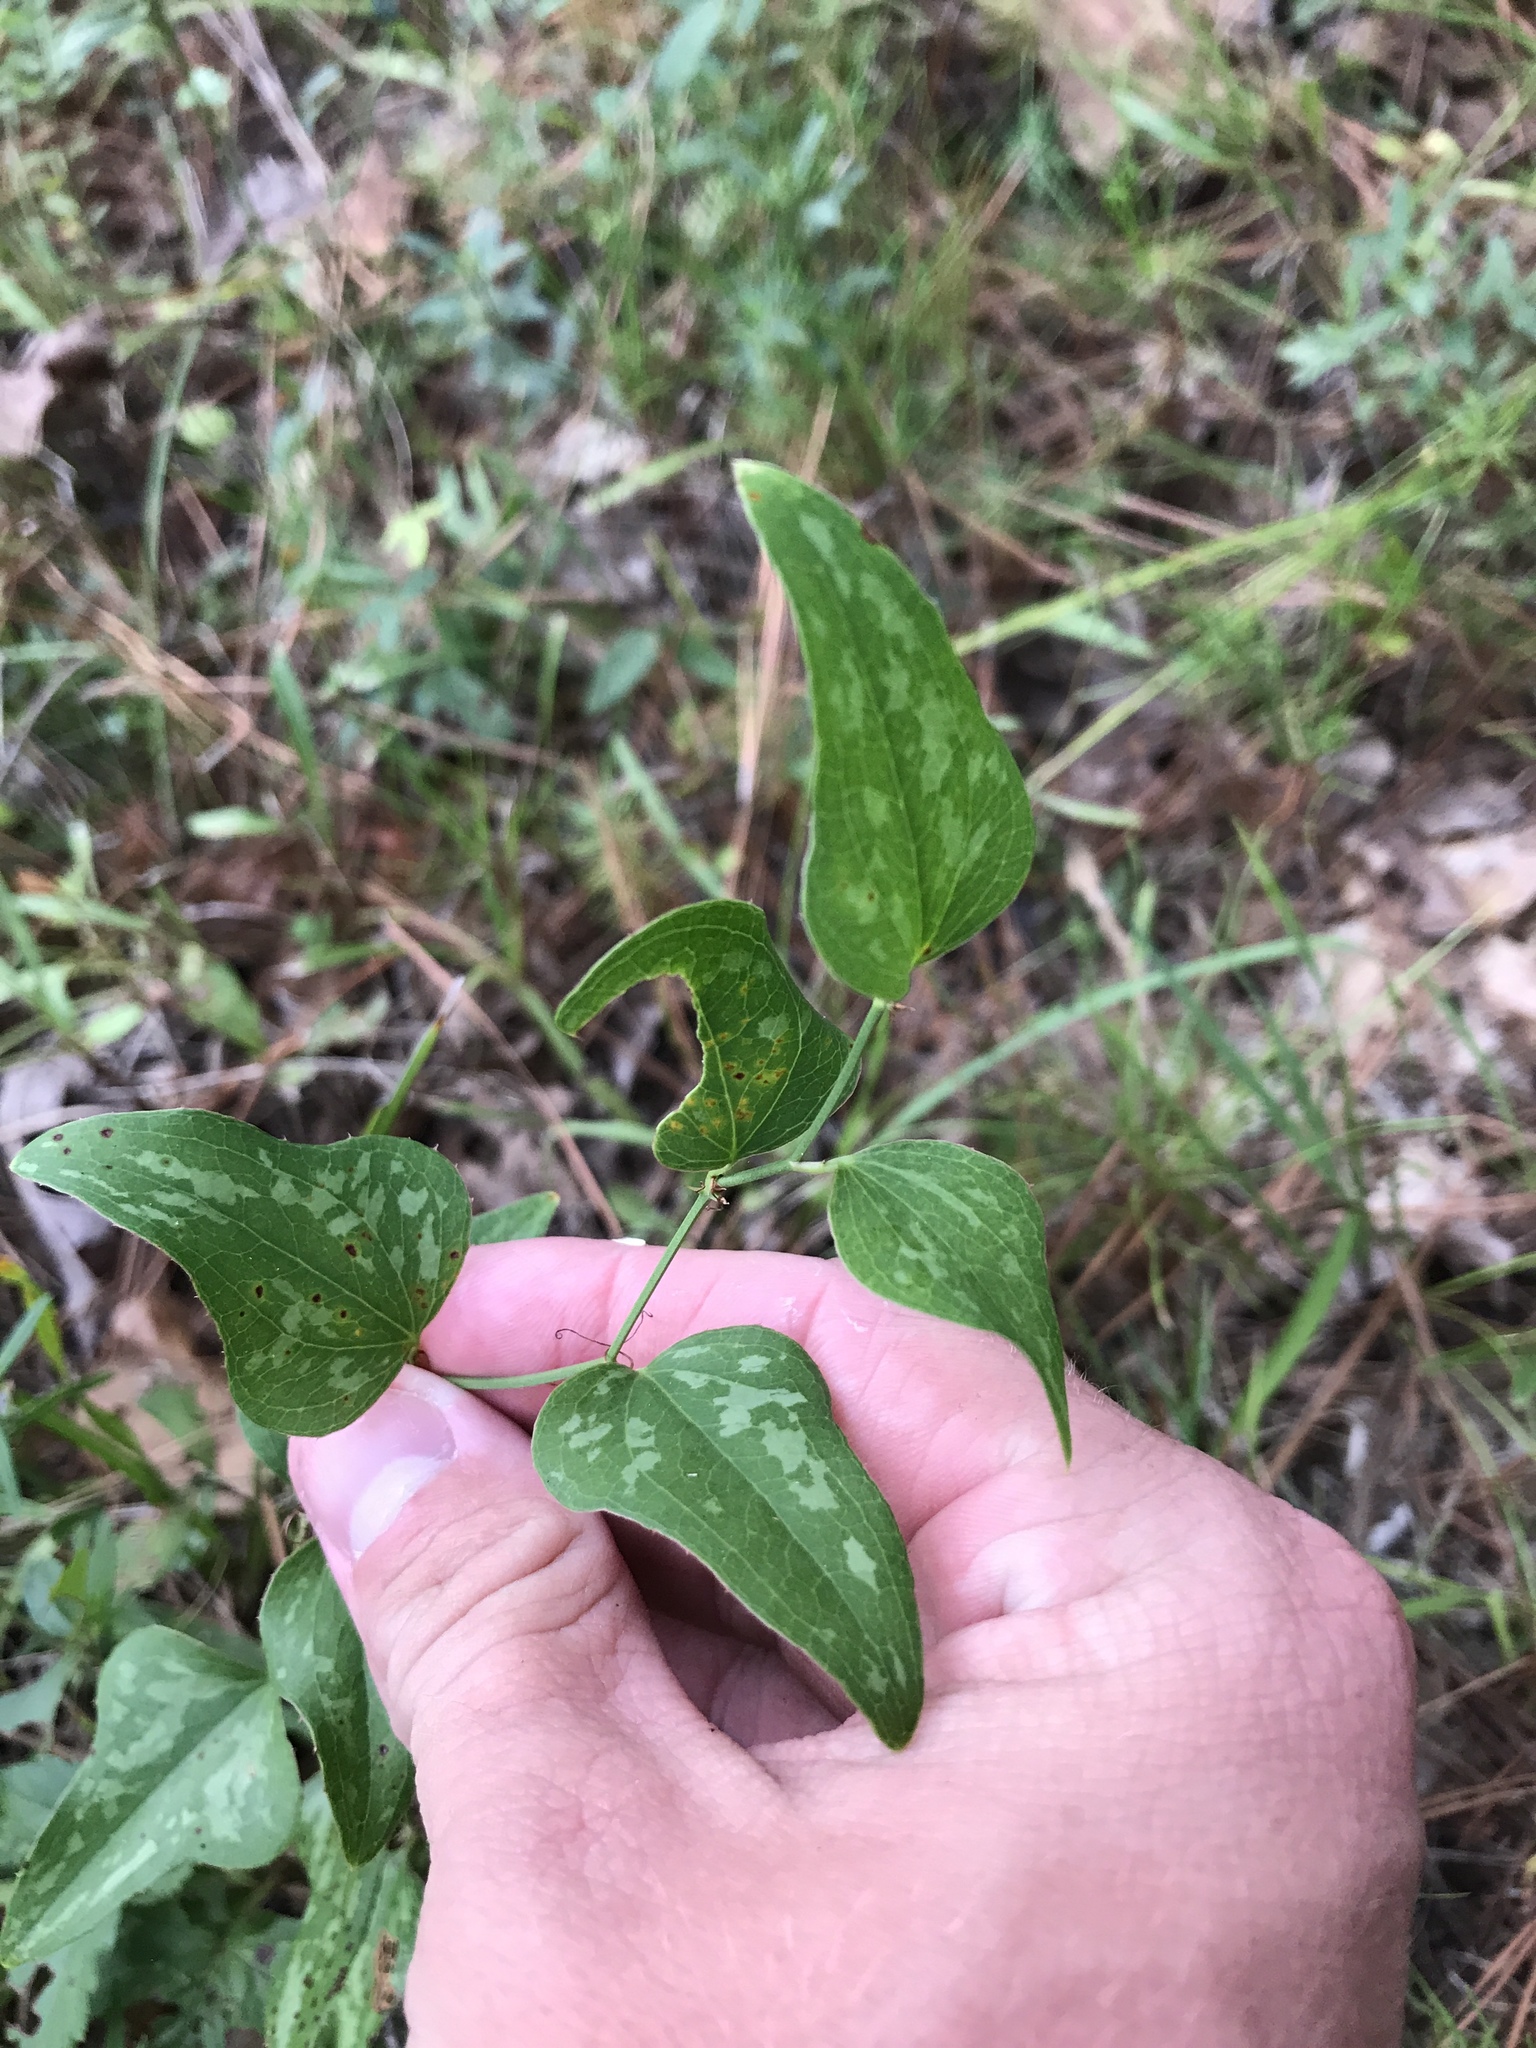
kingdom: Plantae
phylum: Tracheophyta
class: Liliopsida
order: Liliales
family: Smilacaceae
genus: Smilax
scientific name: Smilax bona-nox
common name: Catbrier
